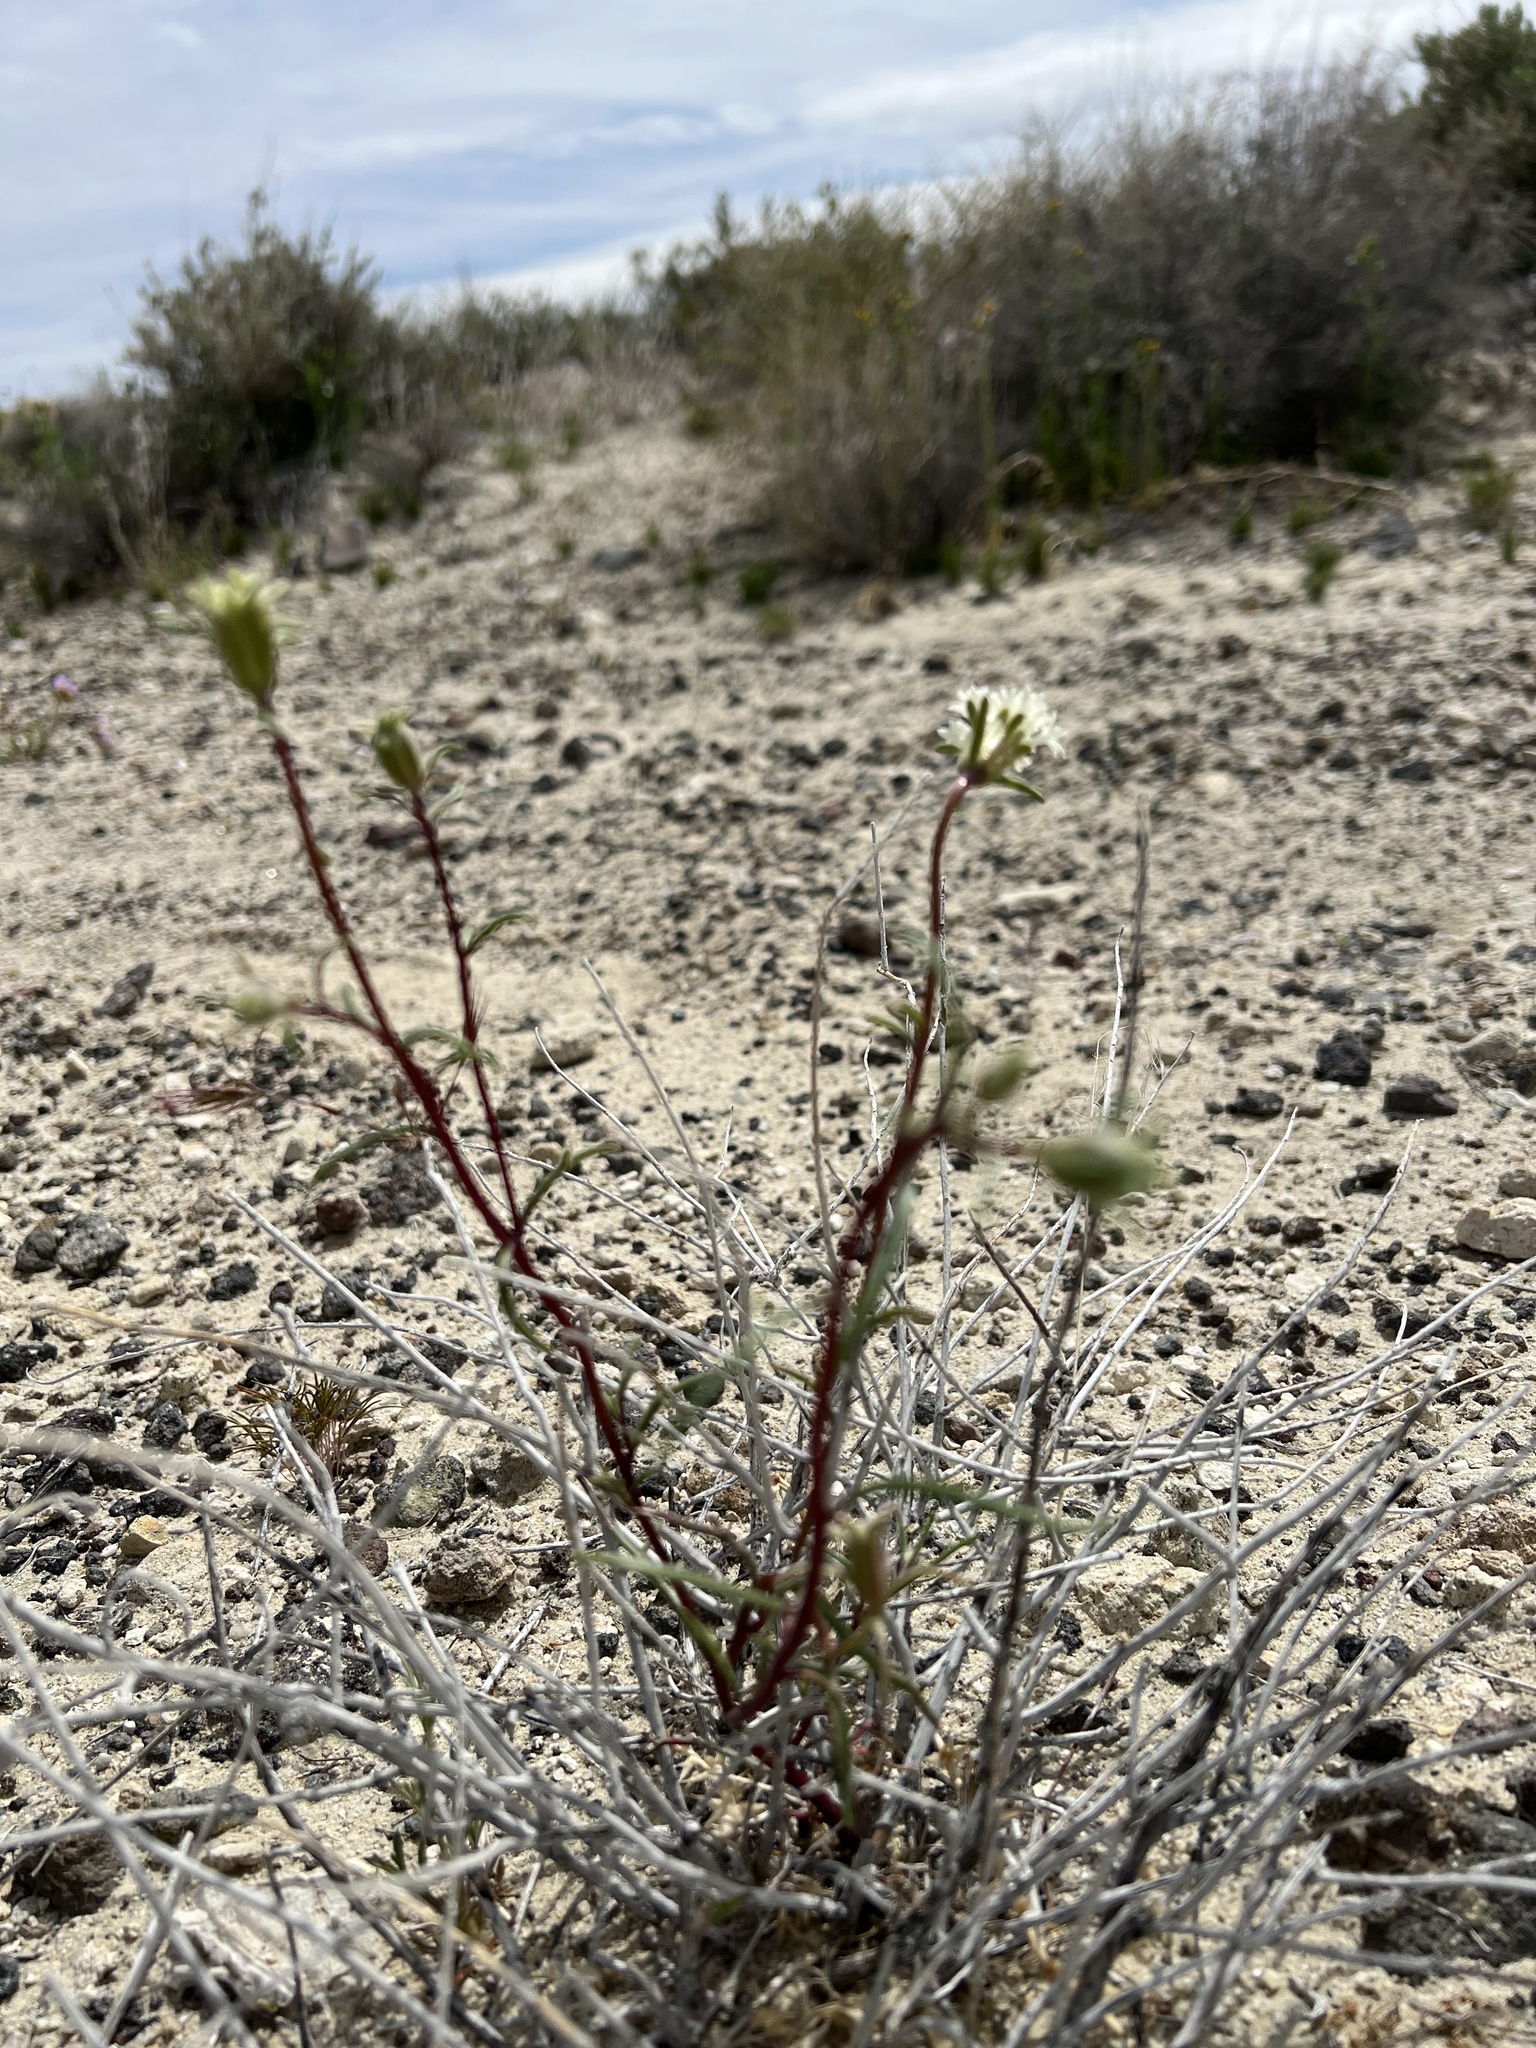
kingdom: Plantae
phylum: Tracheophyta
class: Magnoliopsida
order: Asterales
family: Asteraceae
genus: Chaenactis
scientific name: Chaenactis xantiana
